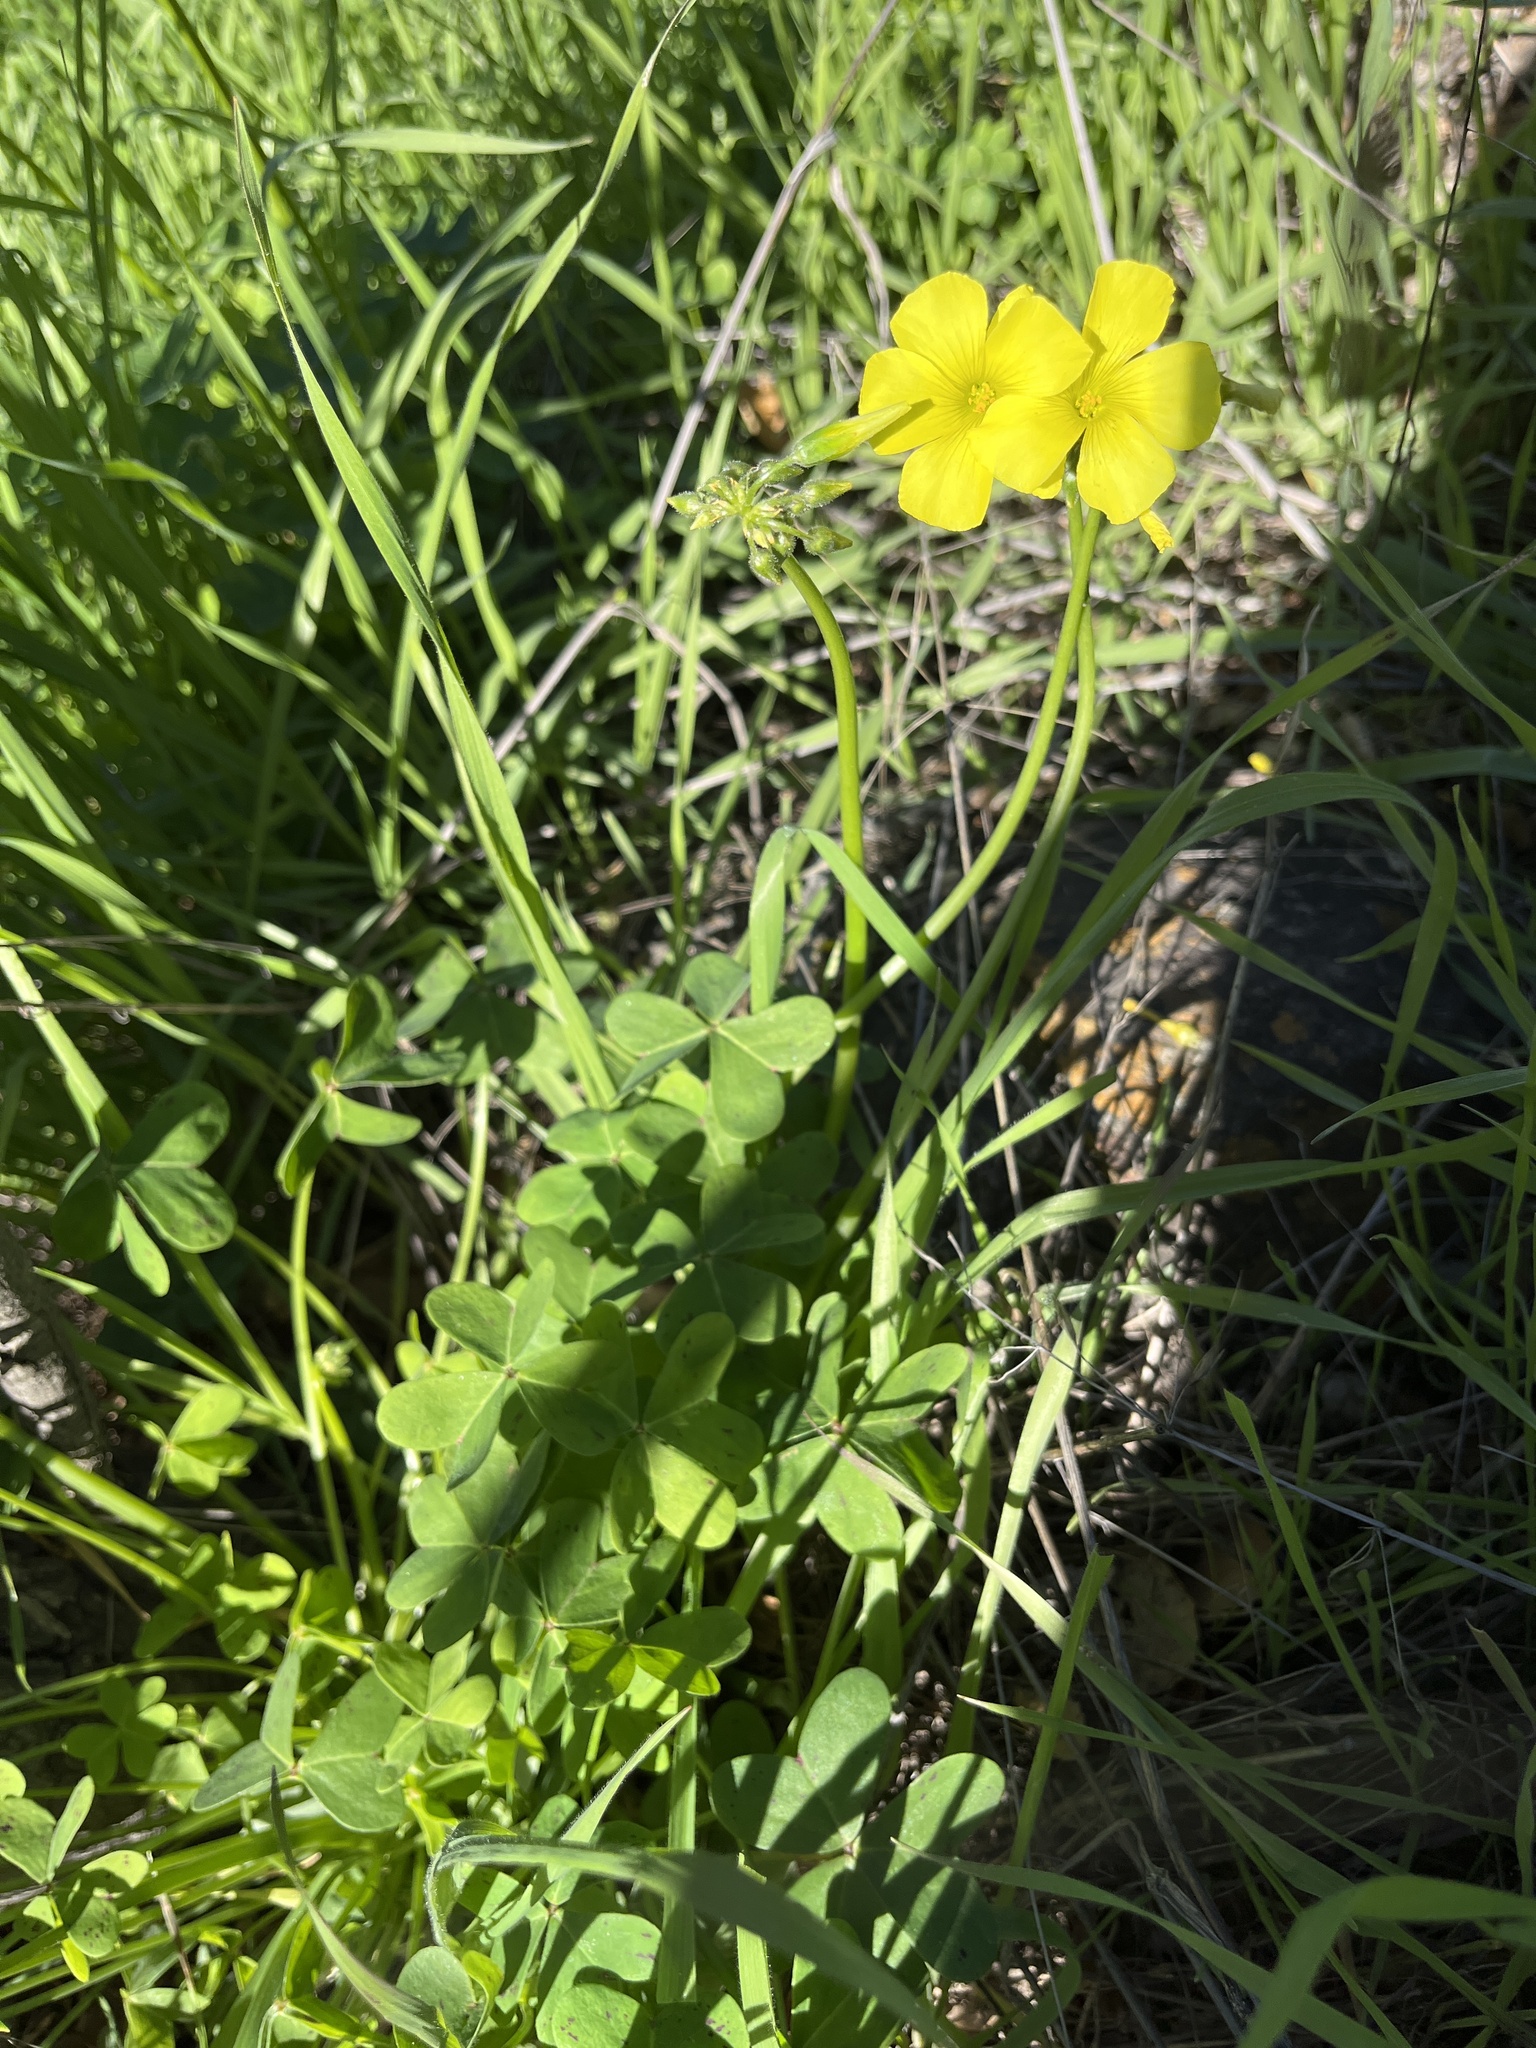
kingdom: Plantae
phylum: Tracheophyta
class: Magnoliopsida
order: Oxalidales
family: Oxalidaceae
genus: Oxalis
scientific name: Oxalis pes-caprae
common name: Bermuda-buttercup
